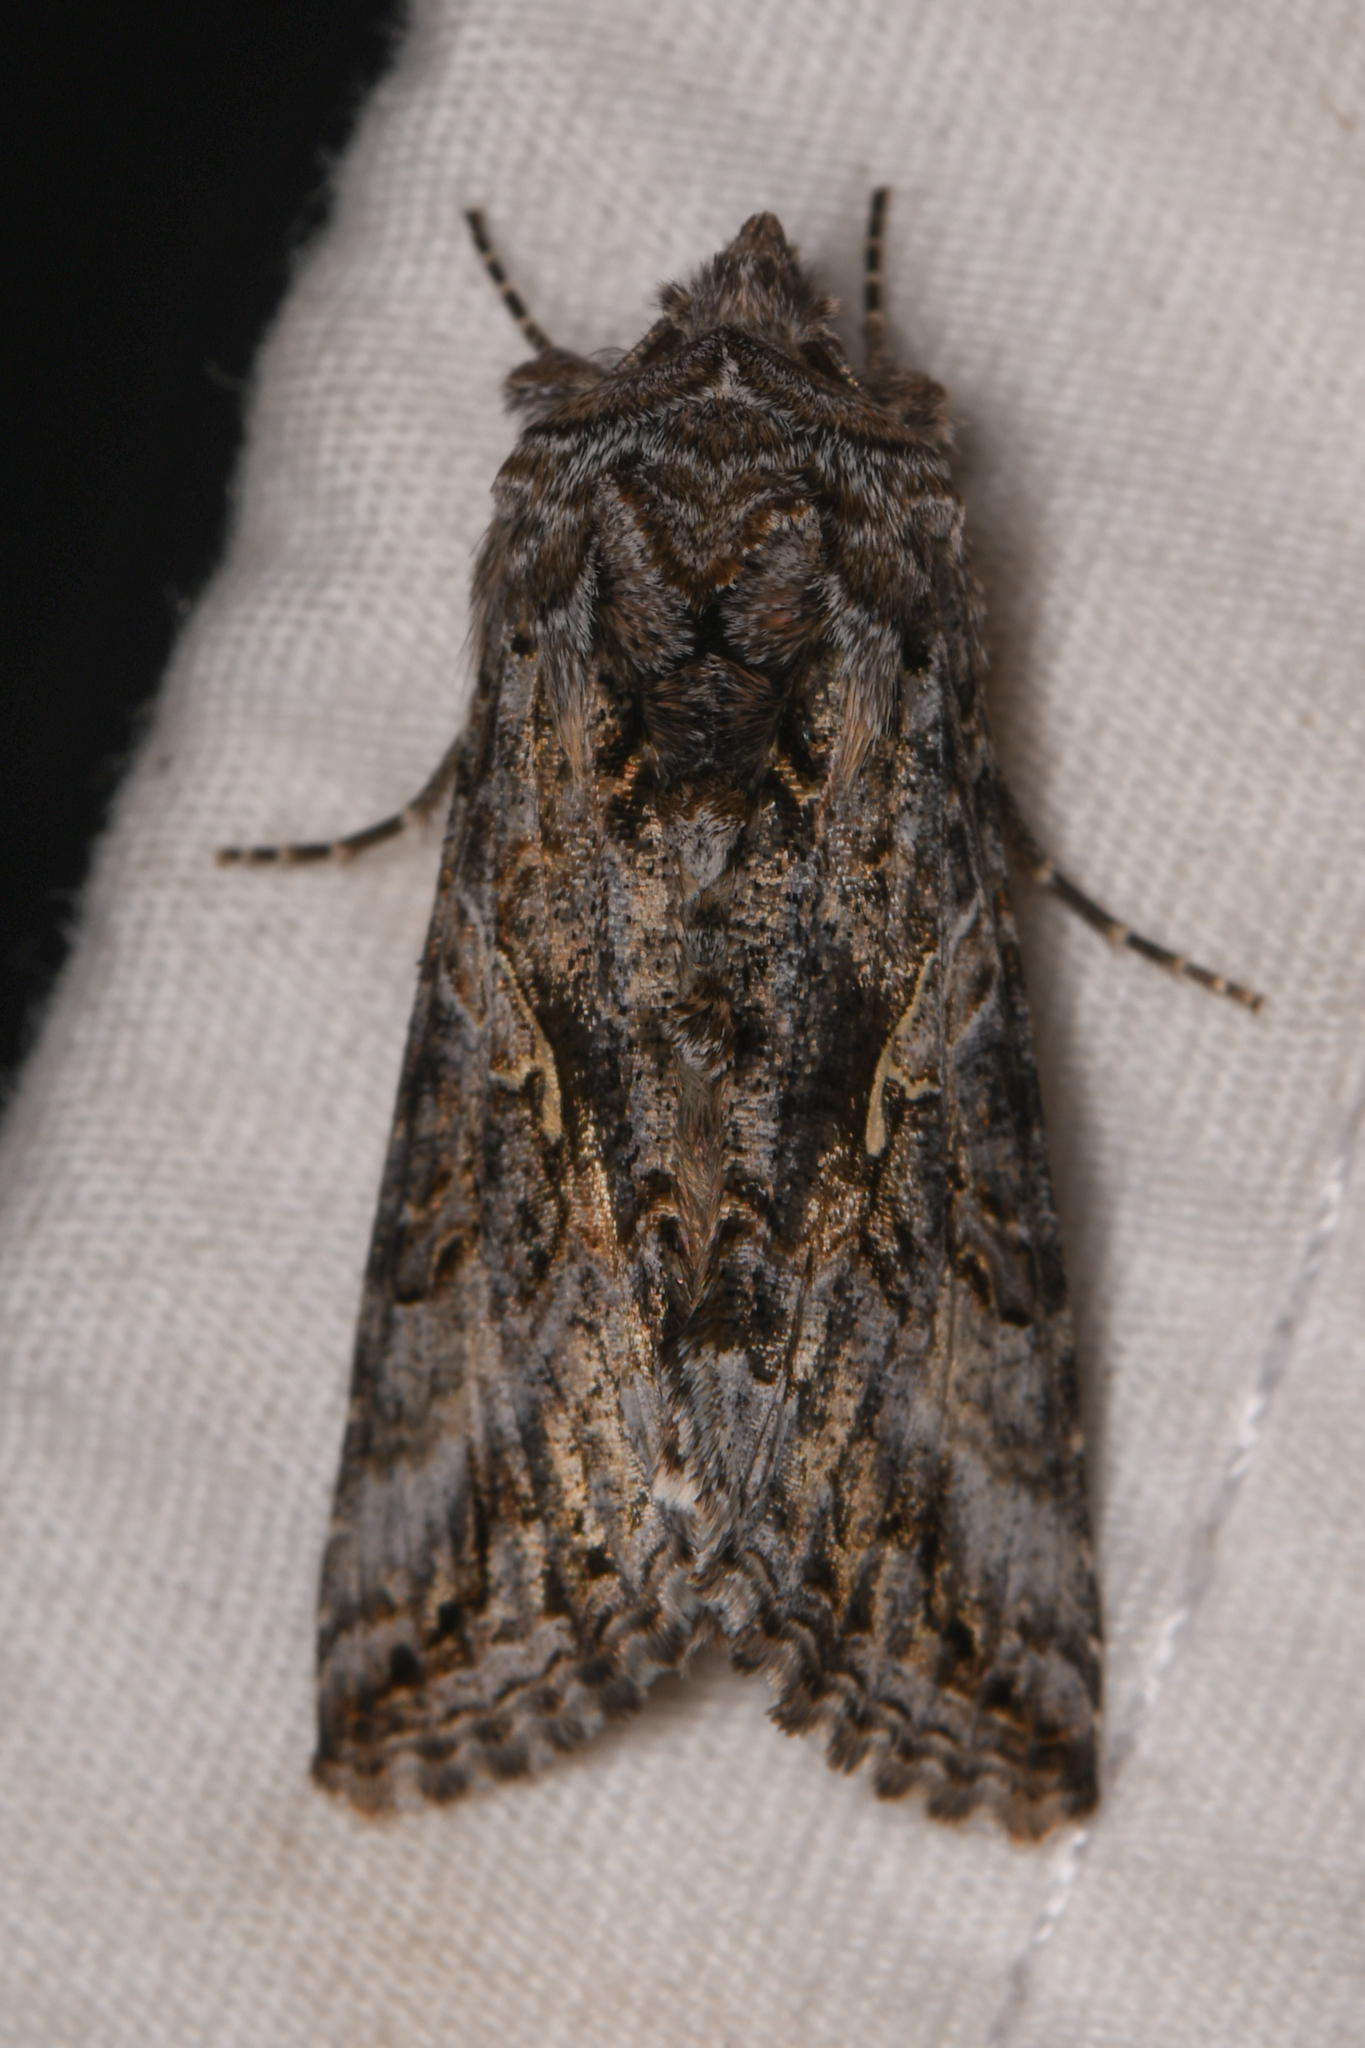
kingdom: Animalia
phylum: Arthropoda
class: Insecta
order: Lepidoptera
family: Noctuidae
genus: Autographa
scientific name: Autographa californica
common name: Alfalfa looper
